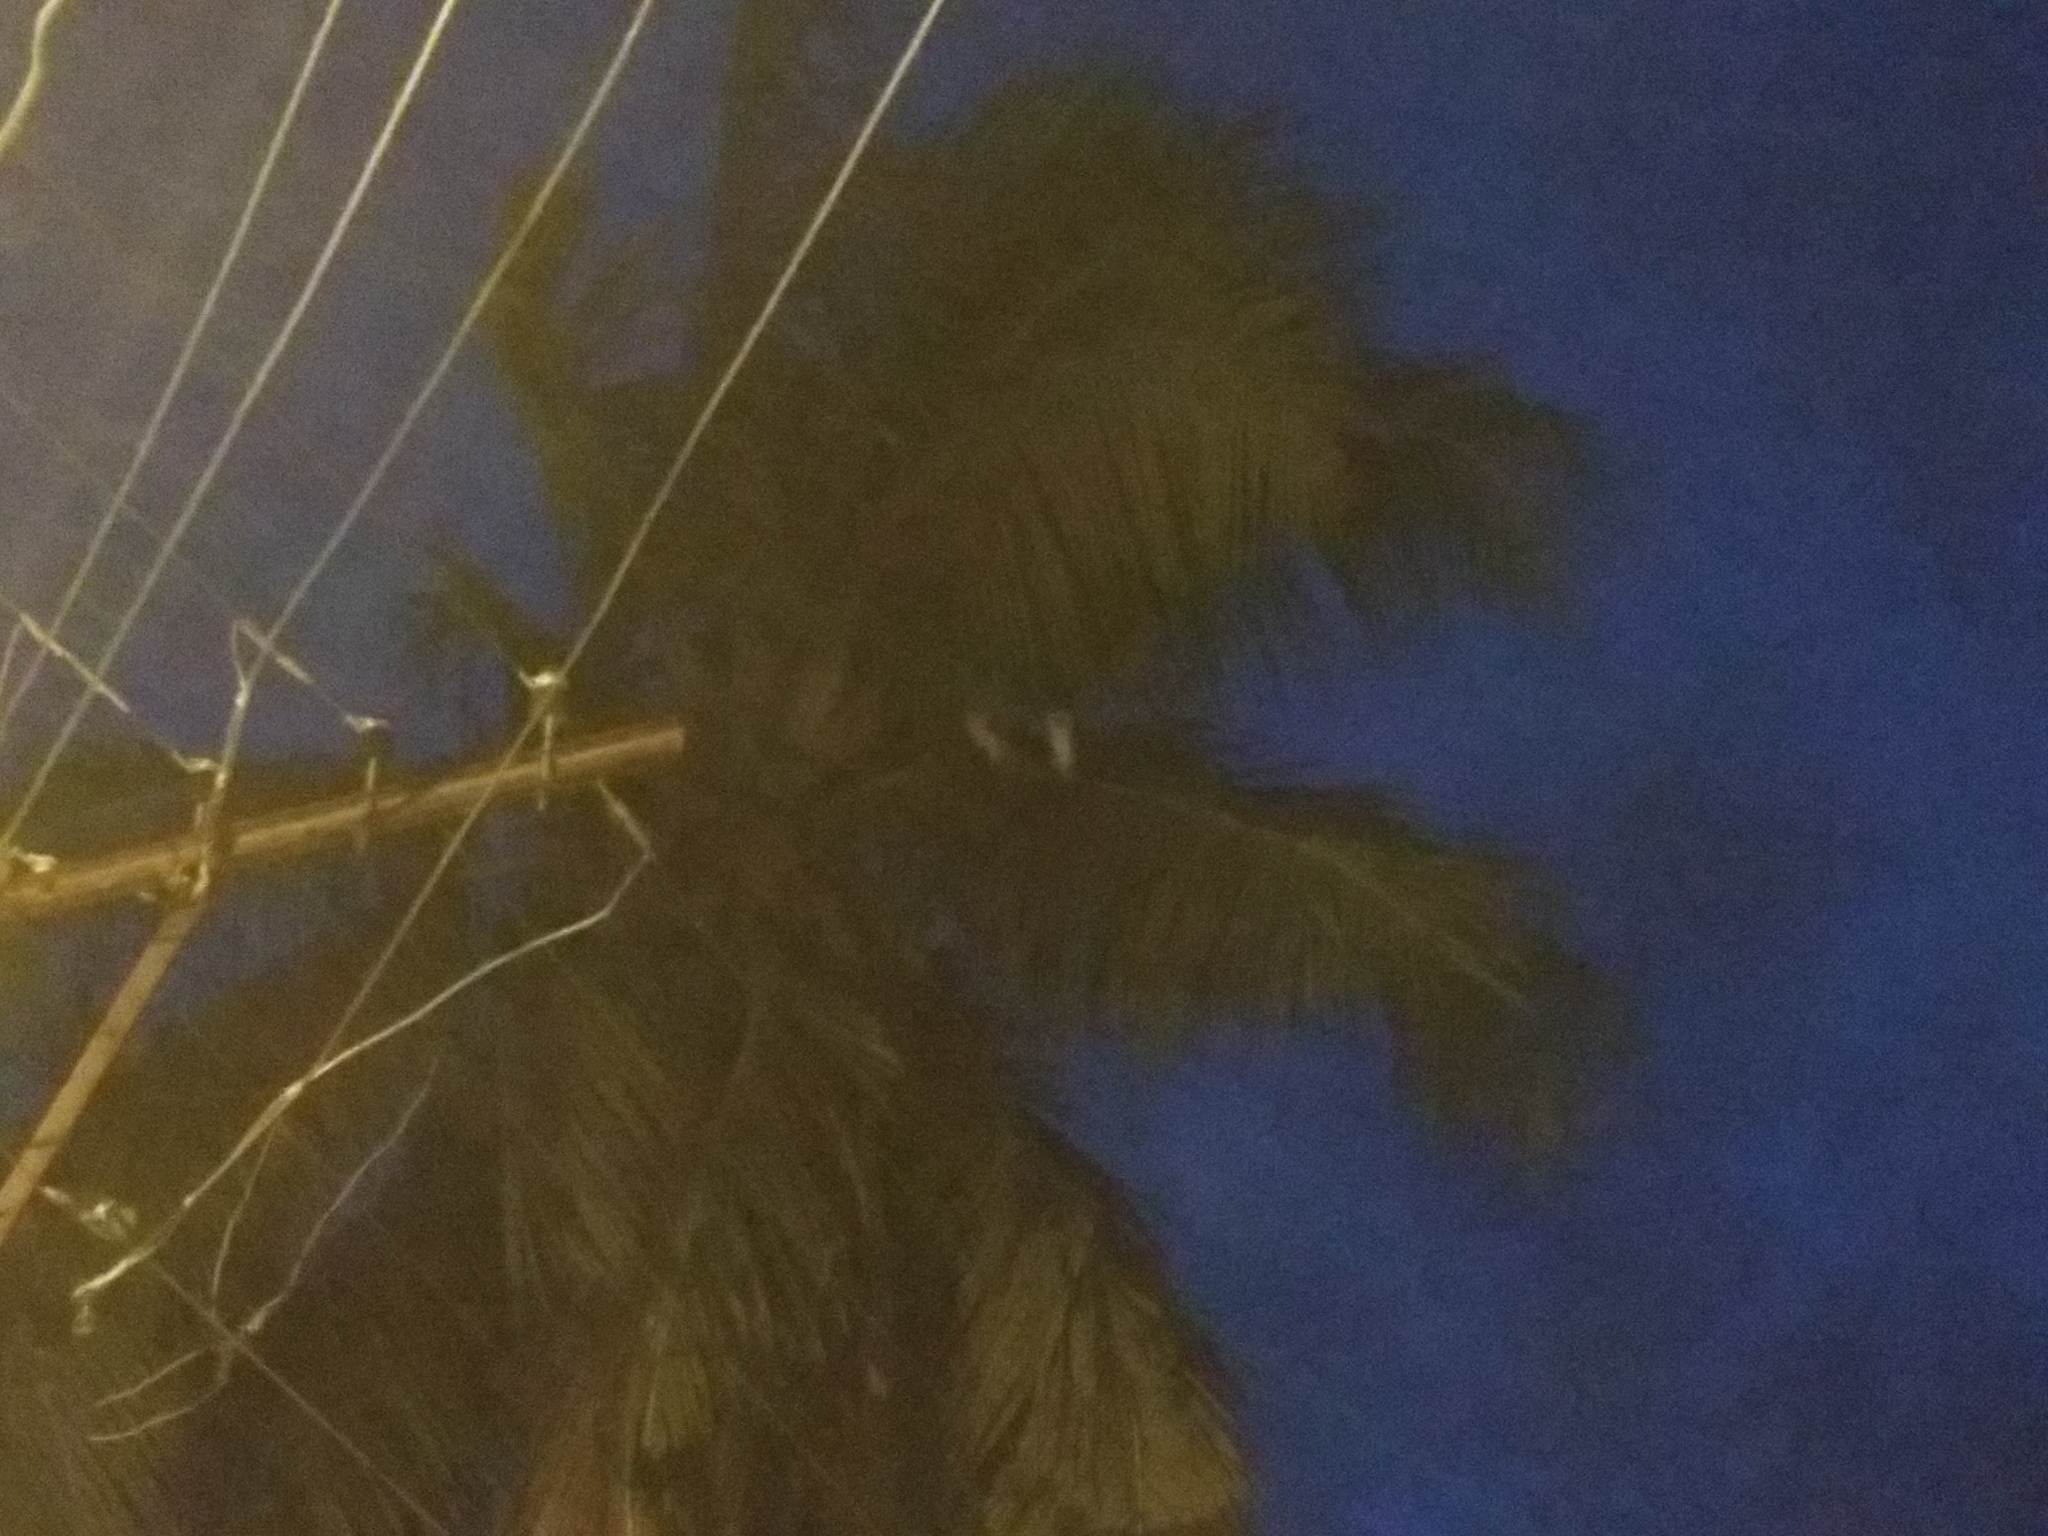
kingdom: Animalia
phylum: Chordata
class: Aves
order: Strigiformes
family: Tytonidae
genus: Tyto
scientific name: Tyto alba
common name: Barn owl
